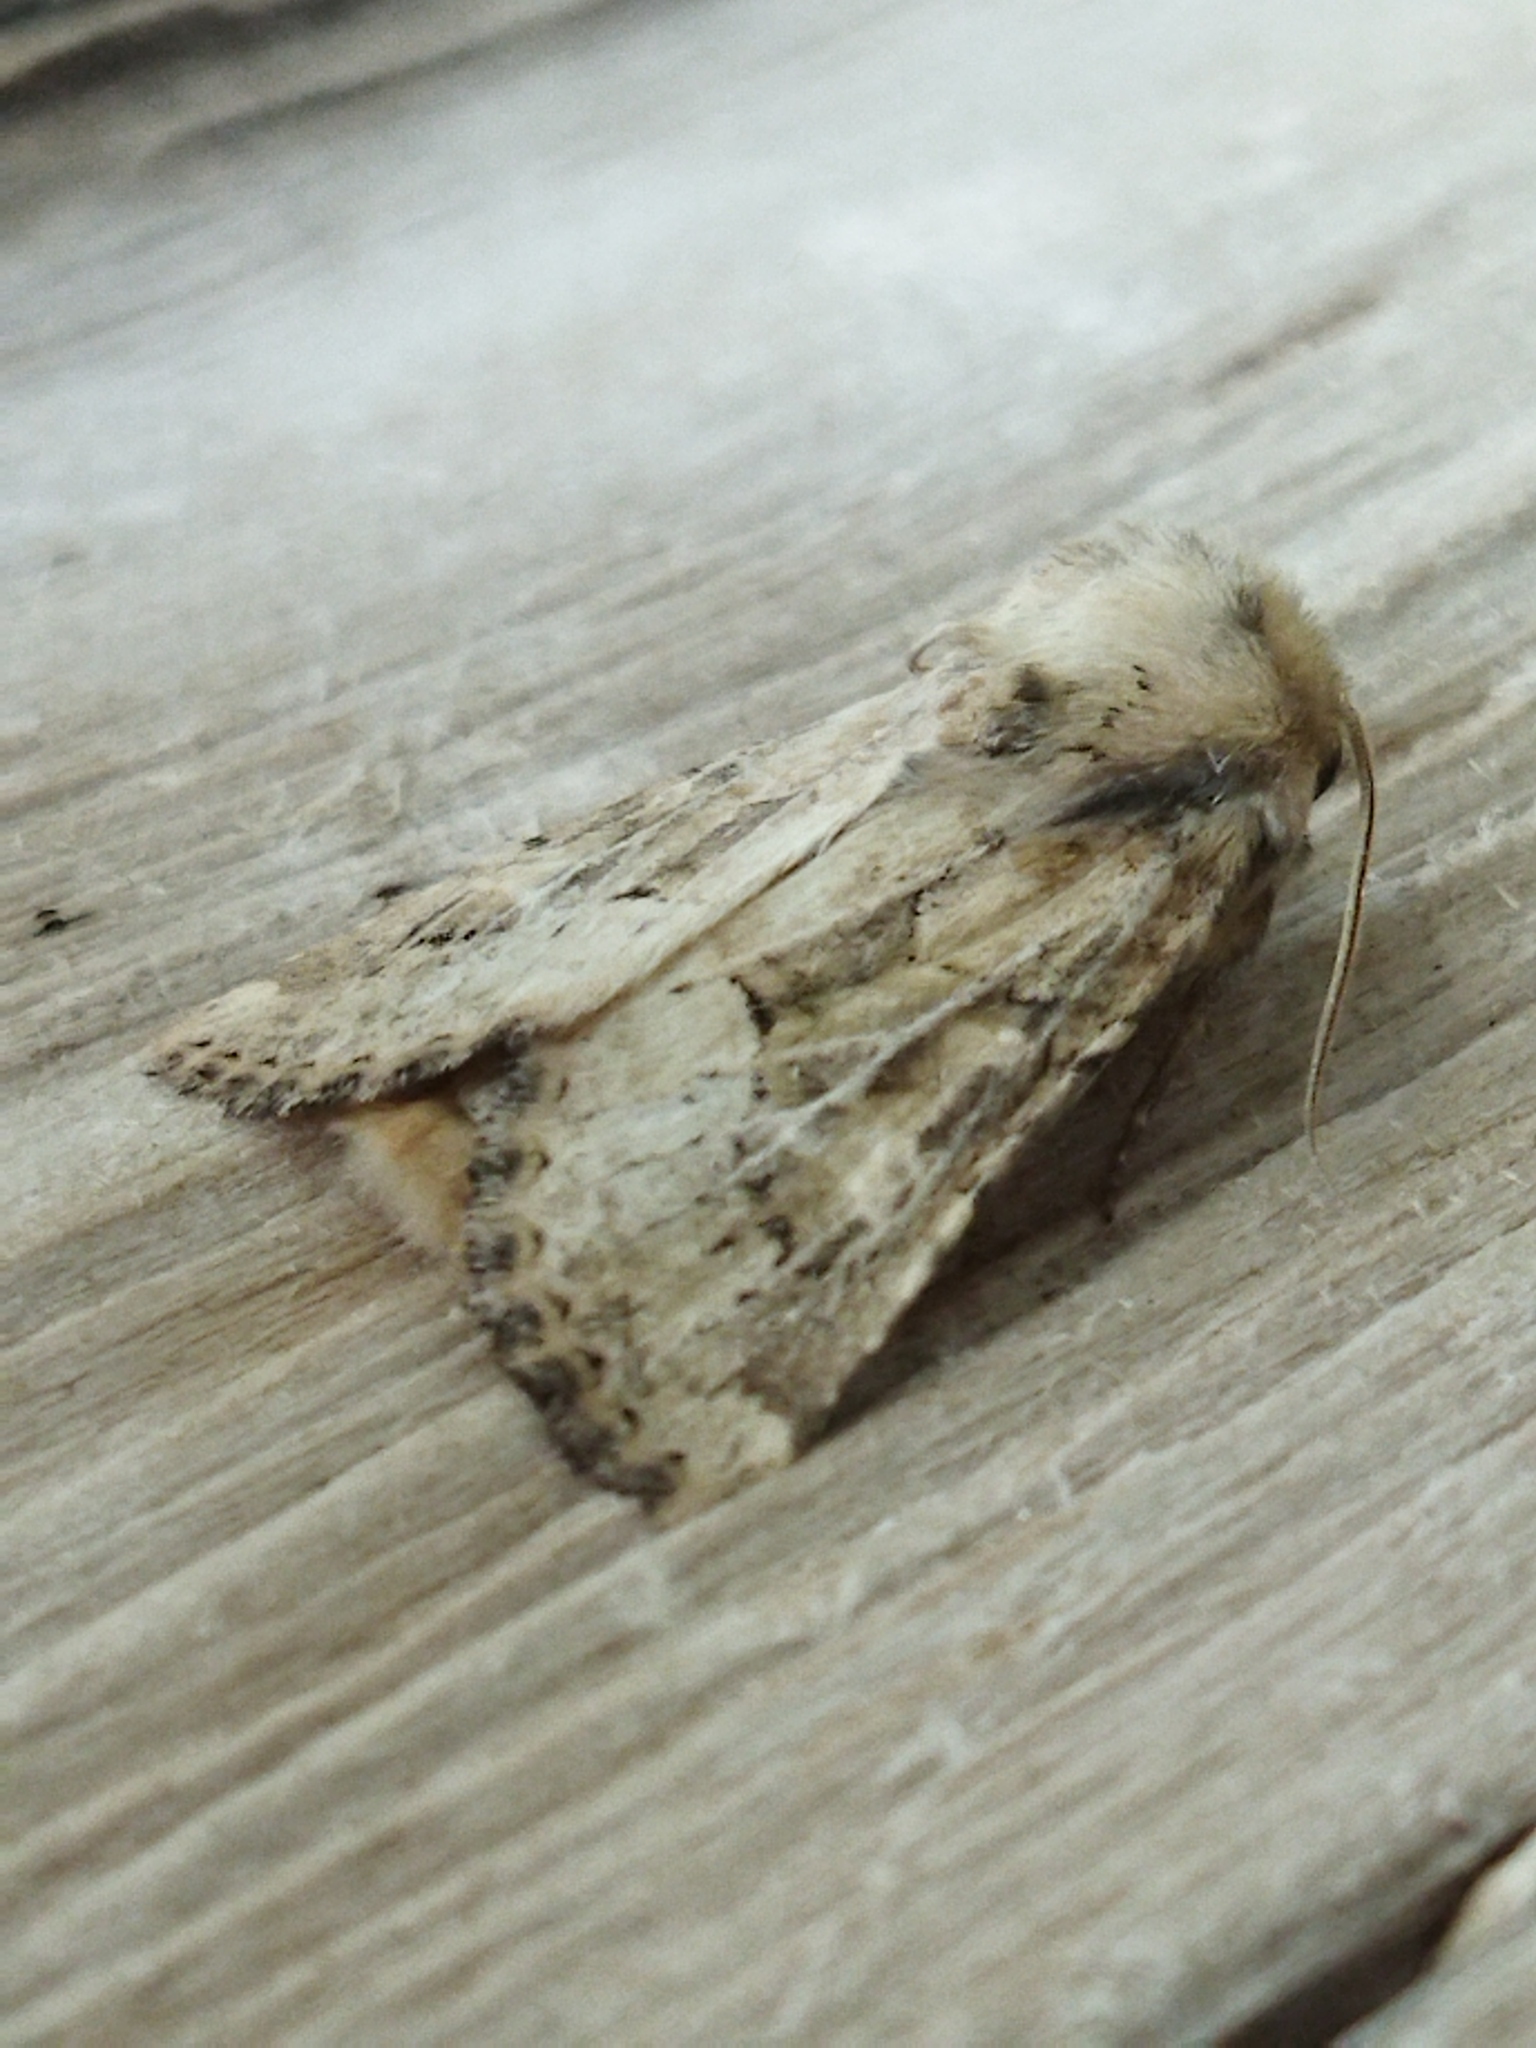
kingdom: Animalia
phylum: Arthropoda
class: Insecta
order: Lepidoptera
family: Noctuidae
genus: Luperina
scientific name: Luperina dumerilii
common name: Dumeril's rustic
